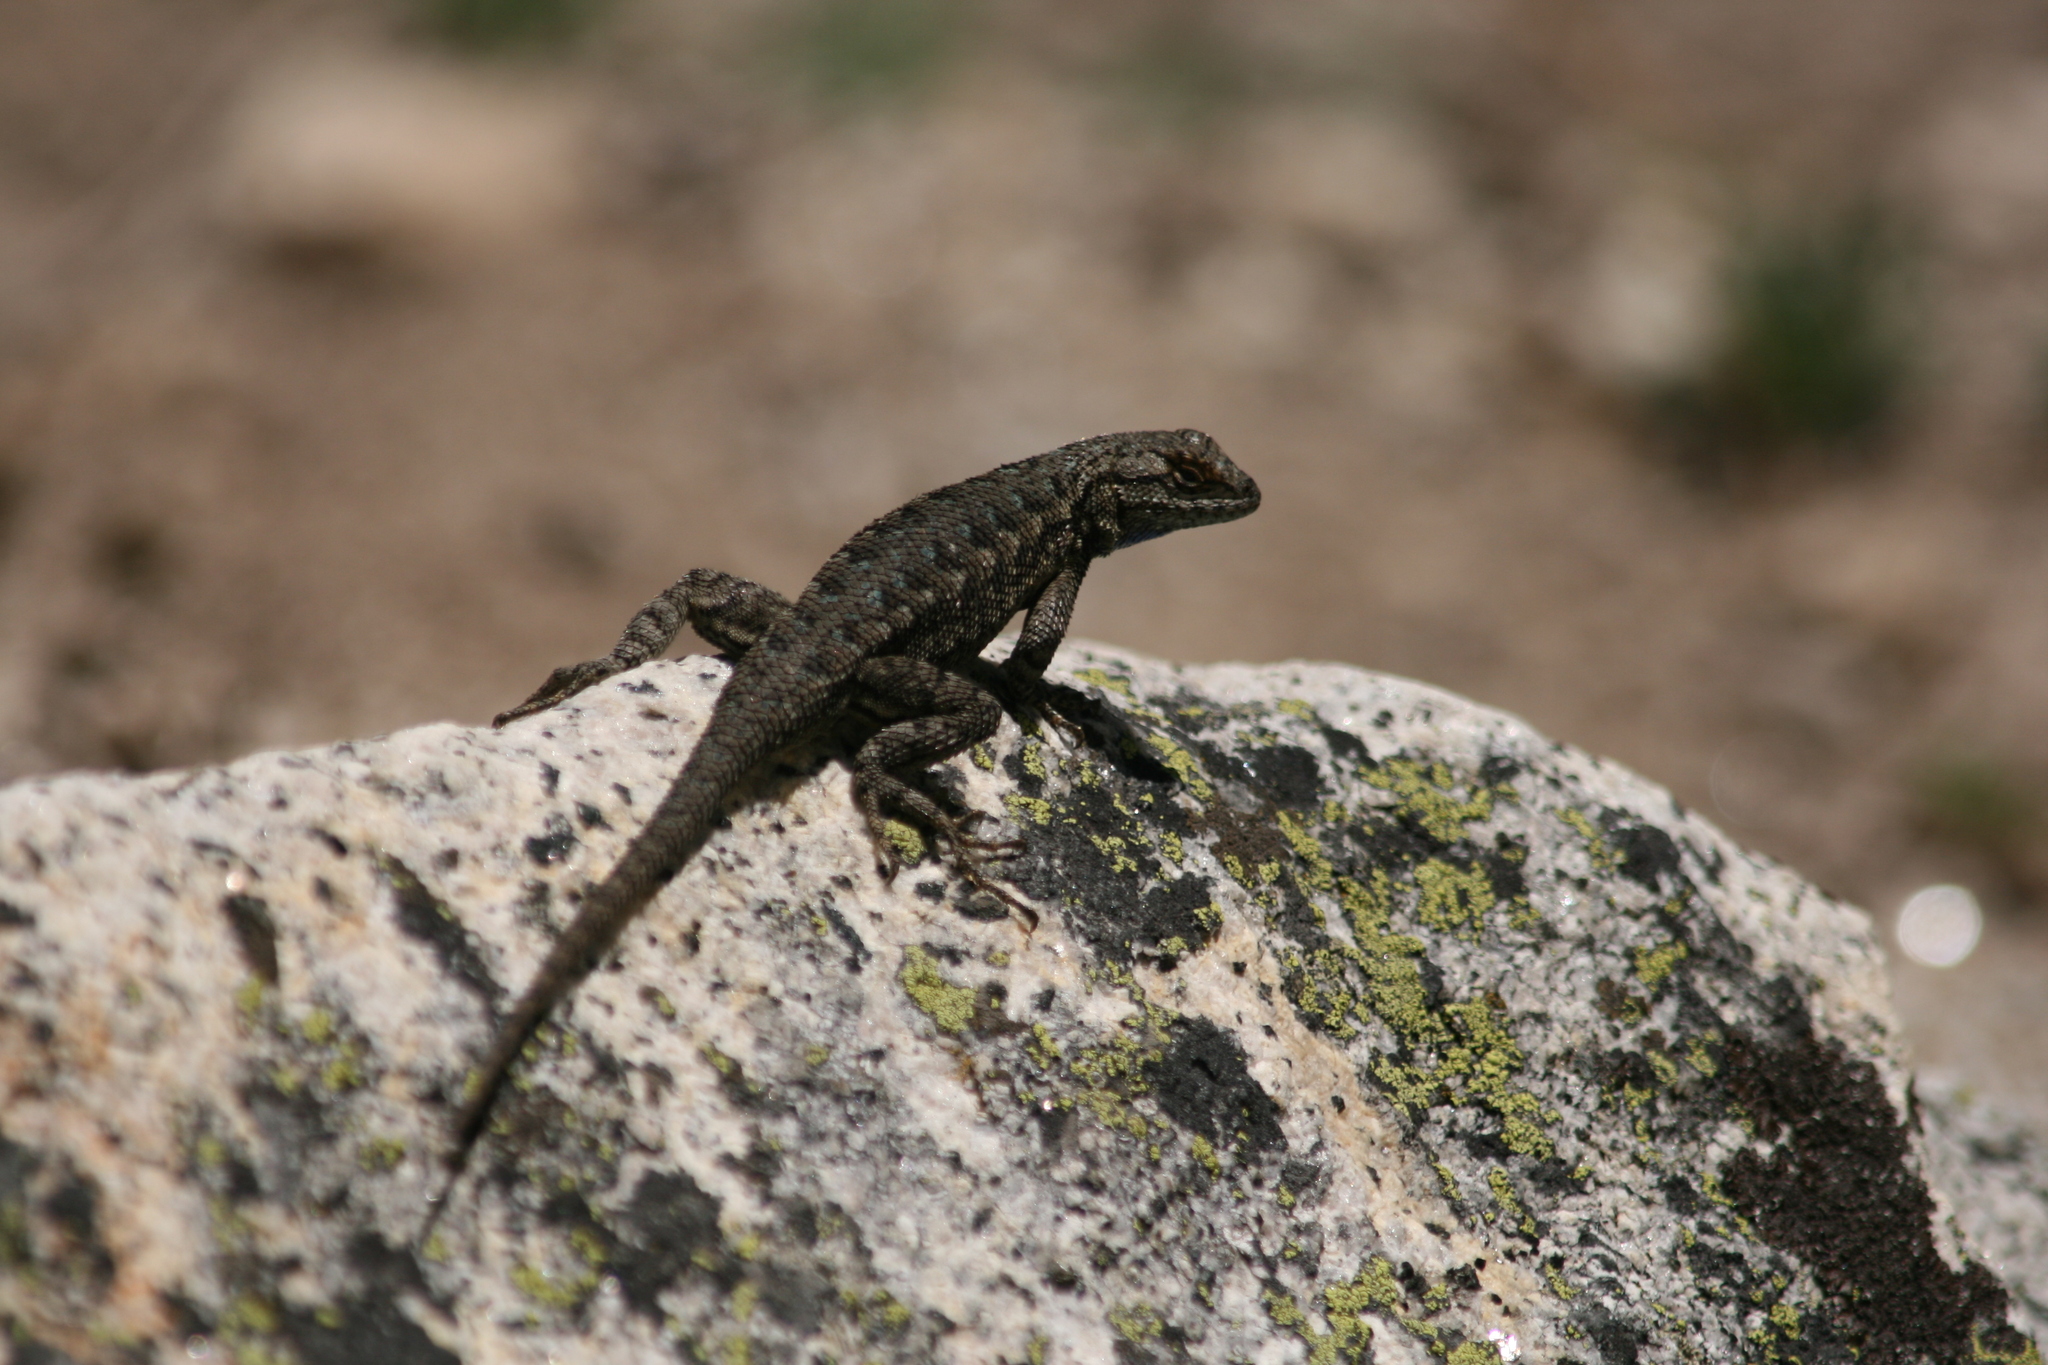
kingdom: Animalia
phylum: Chordata
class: Squamata
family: Phrynosomatidae
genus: Sceloporus
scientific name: Sceloporus occidentalis
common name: Western fence lizard
